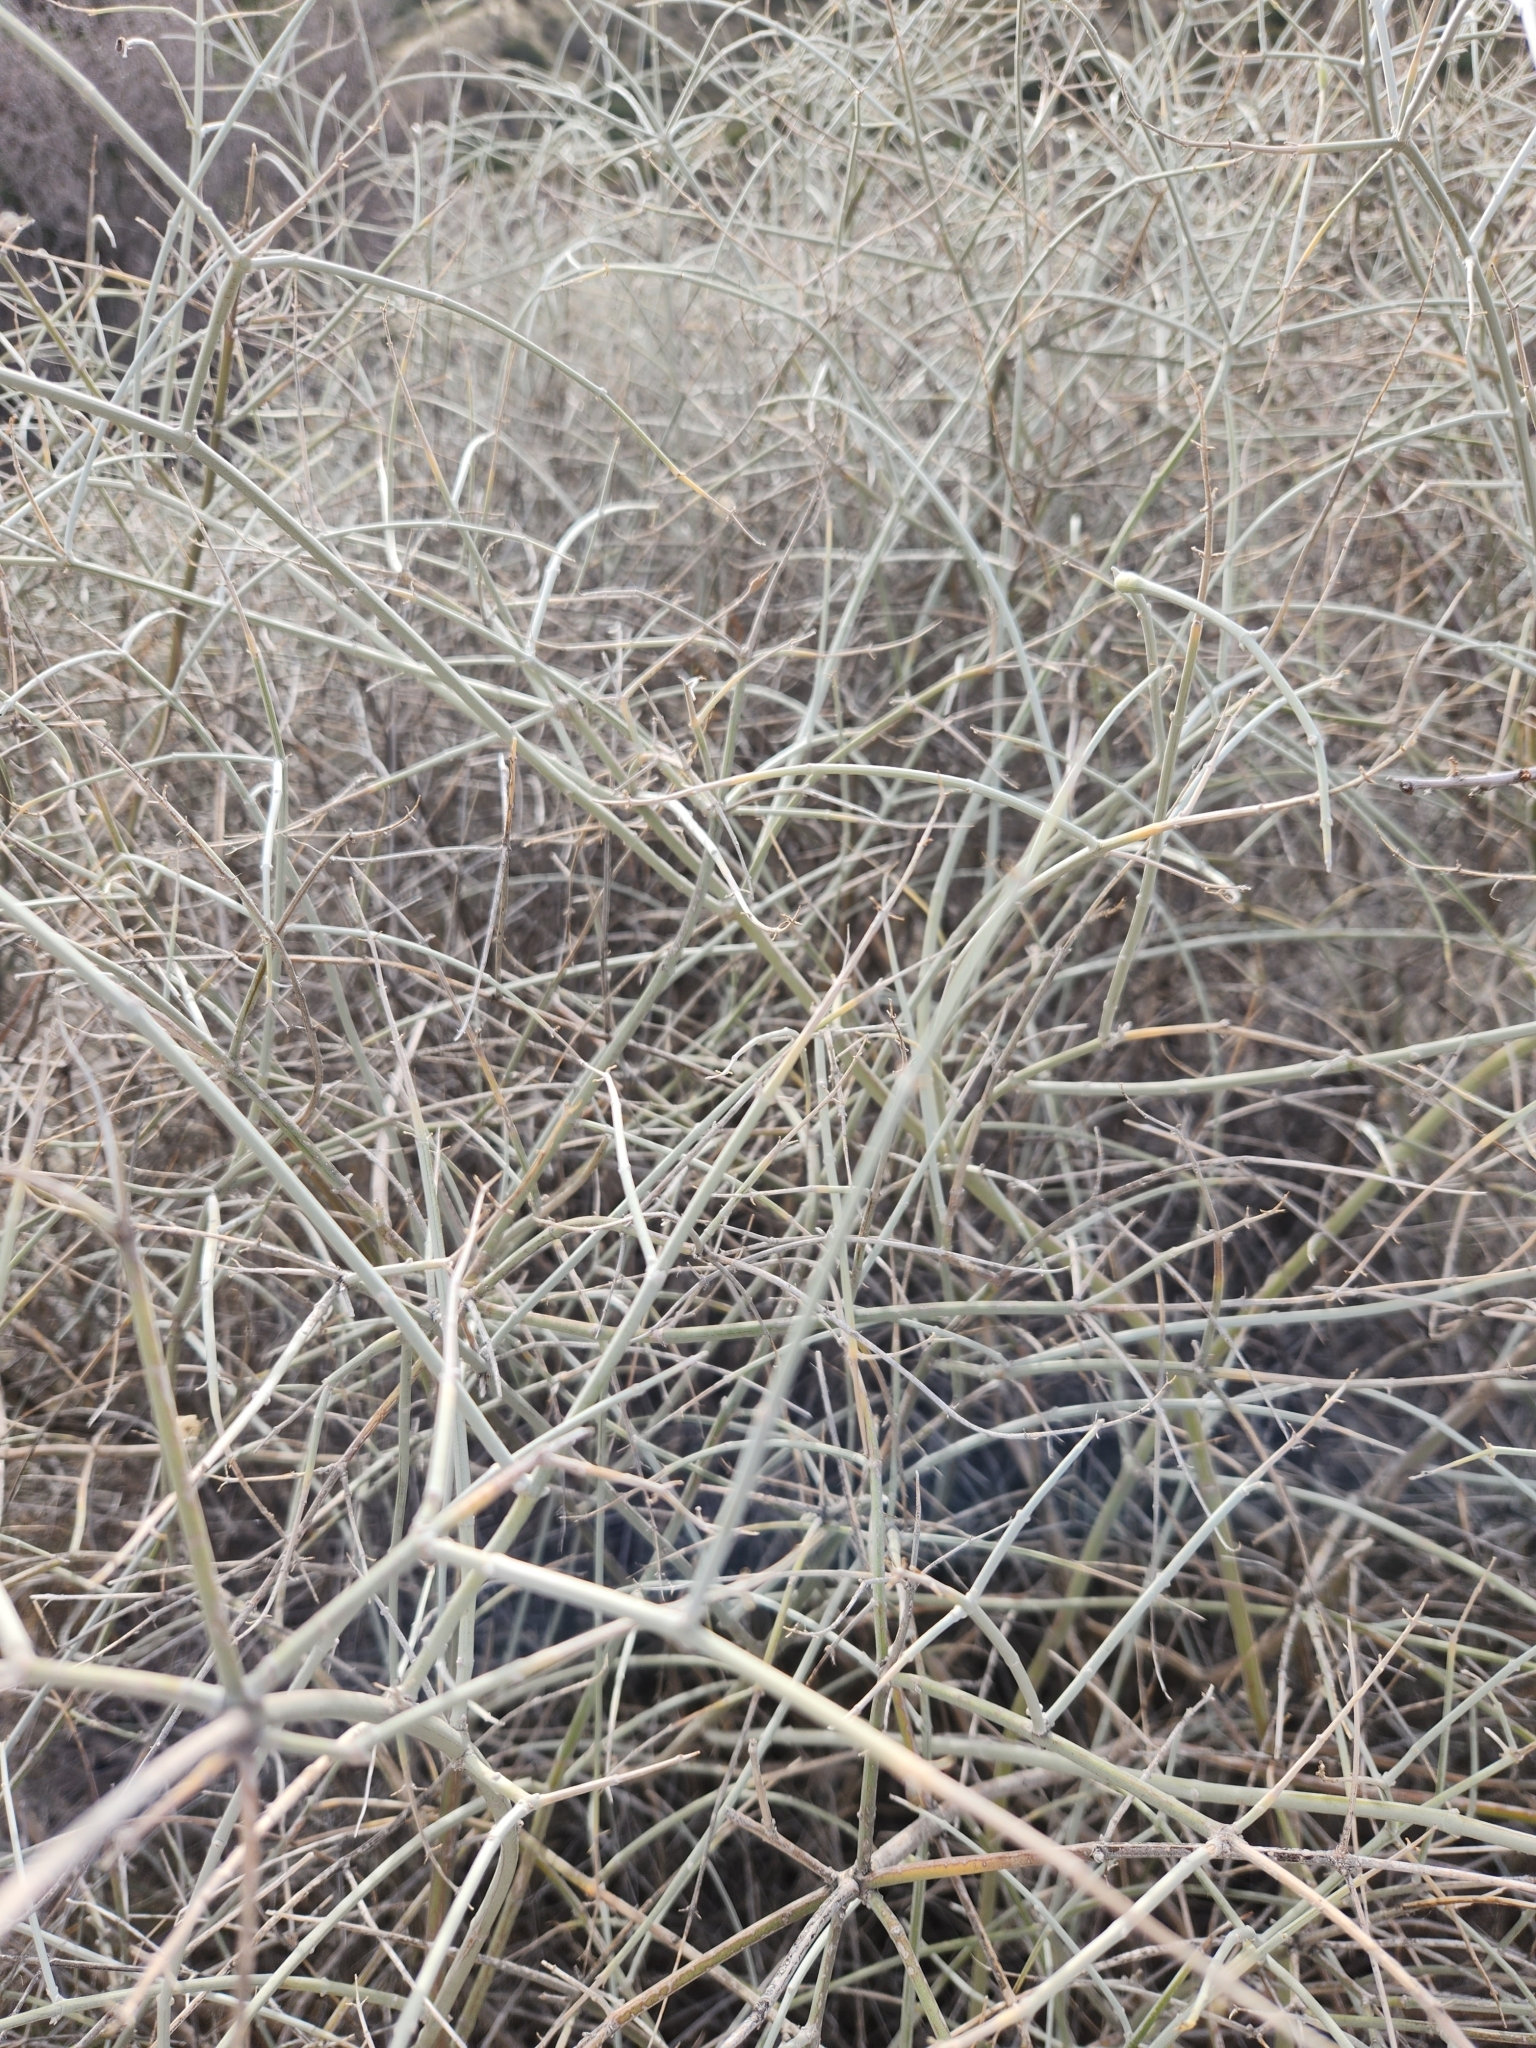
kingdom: Plantae
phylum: Tracheophyta
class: Magnoliopsida
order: Lamiales
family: Lamiaceae
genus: Scutellaria
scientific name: Scutellaria mexicana
